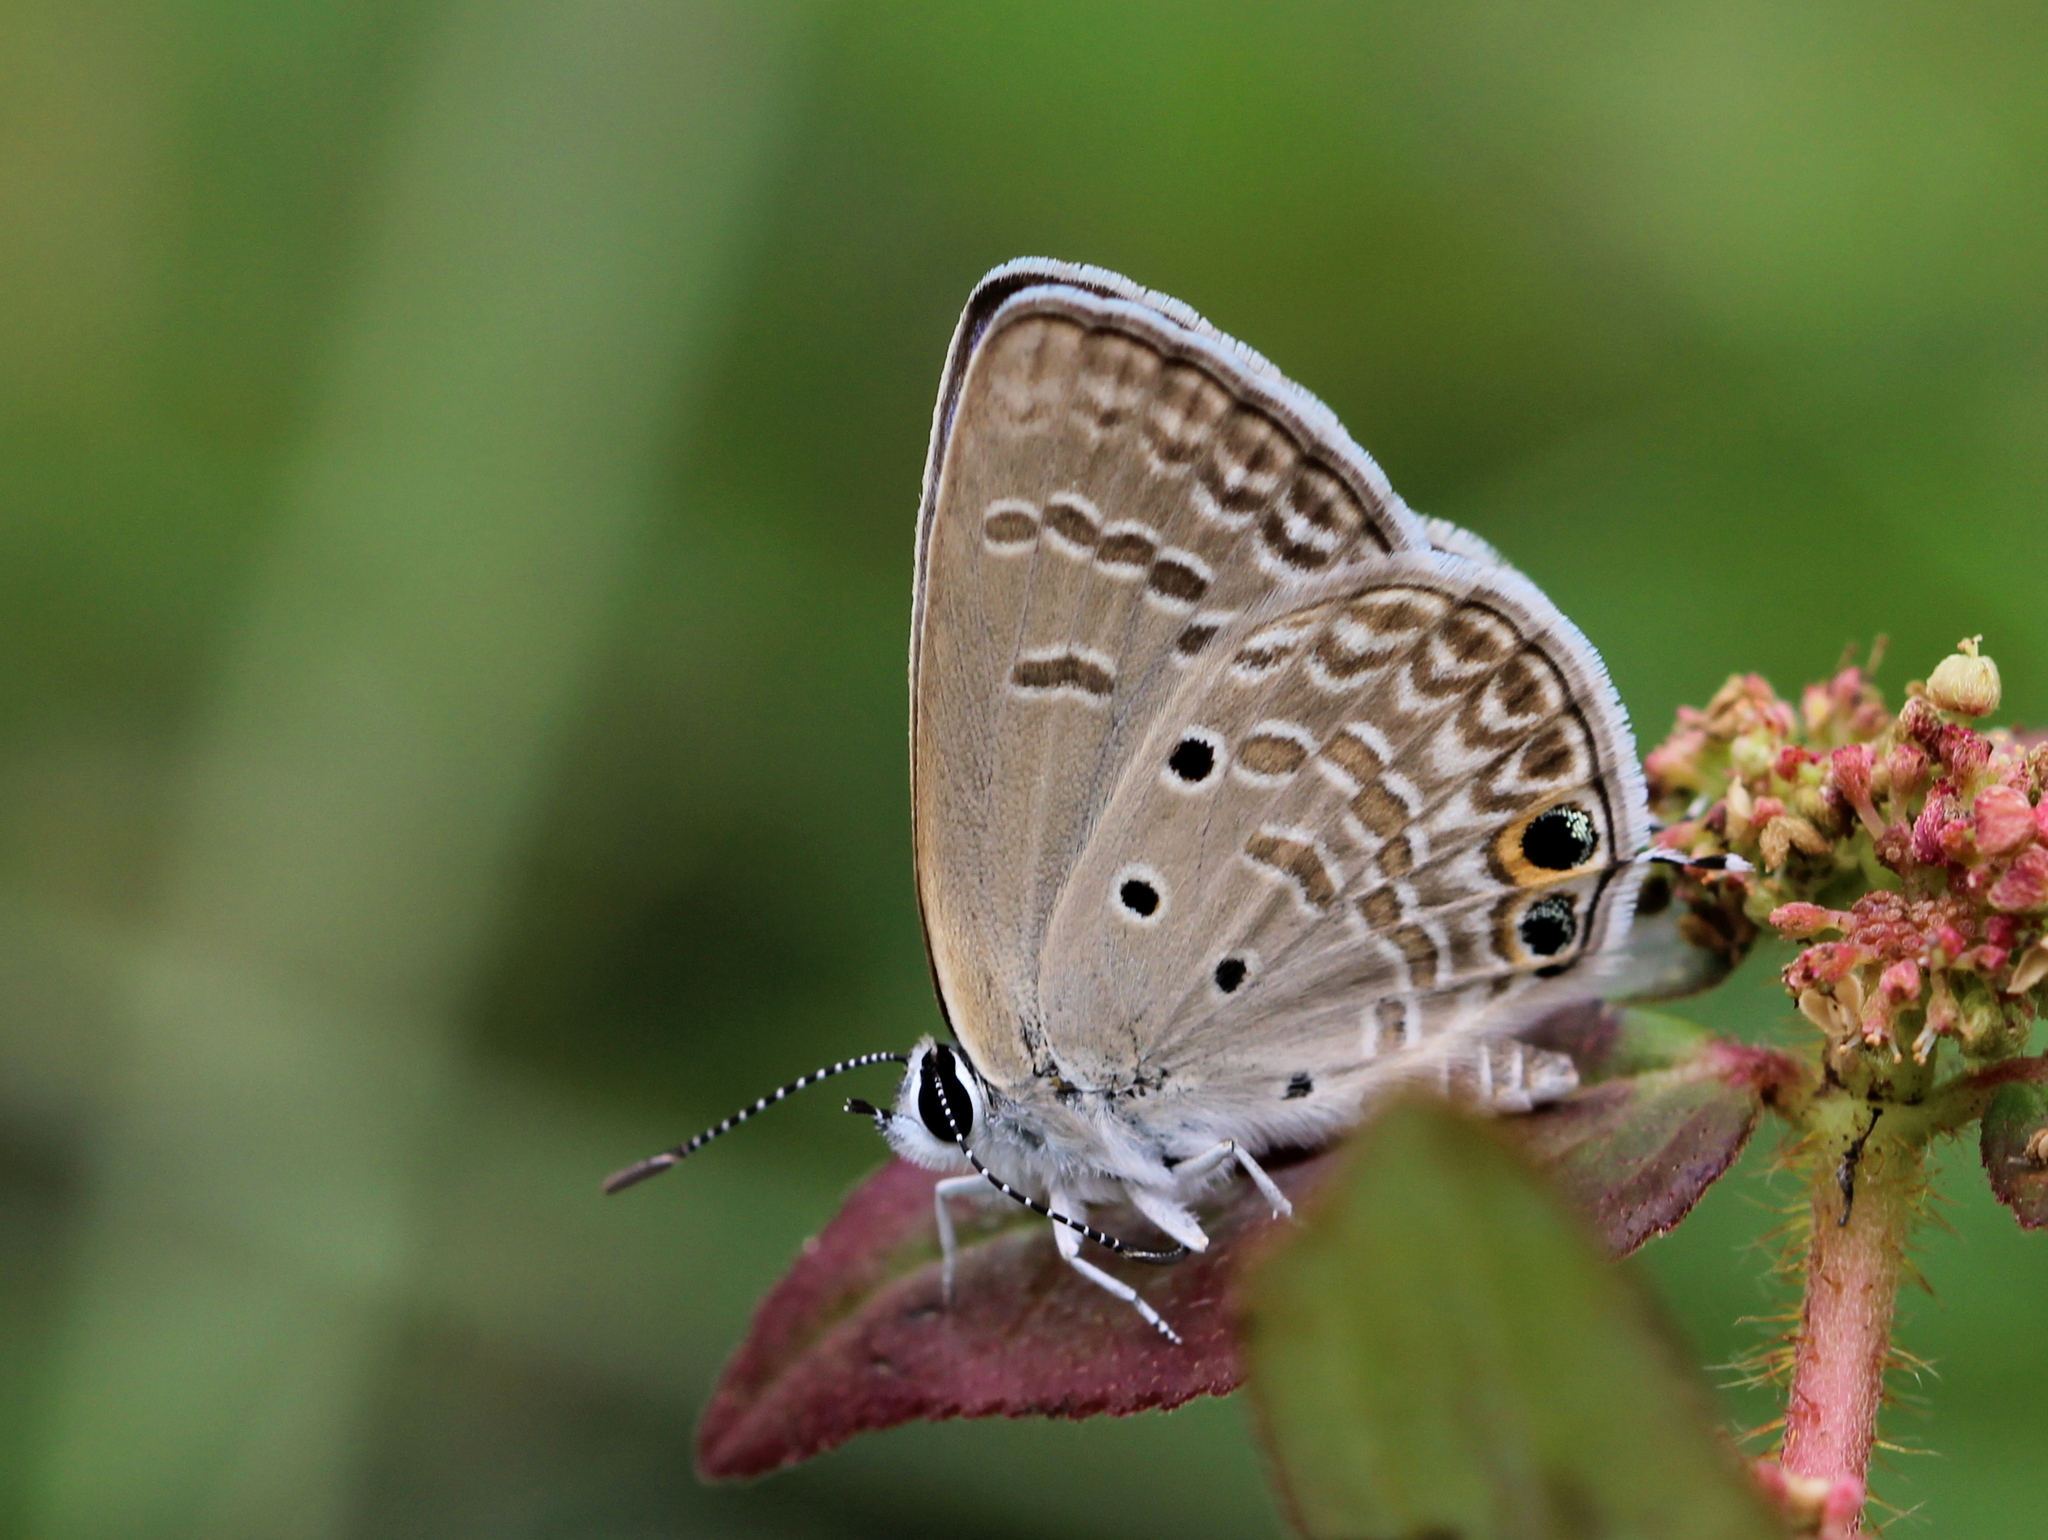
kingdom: Animalia
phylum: Arthropoda
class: Insecta
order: Lepidoptera
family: Lycaenidae
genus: Chilades
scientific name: Chilades parrhasius
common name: Small cupid
